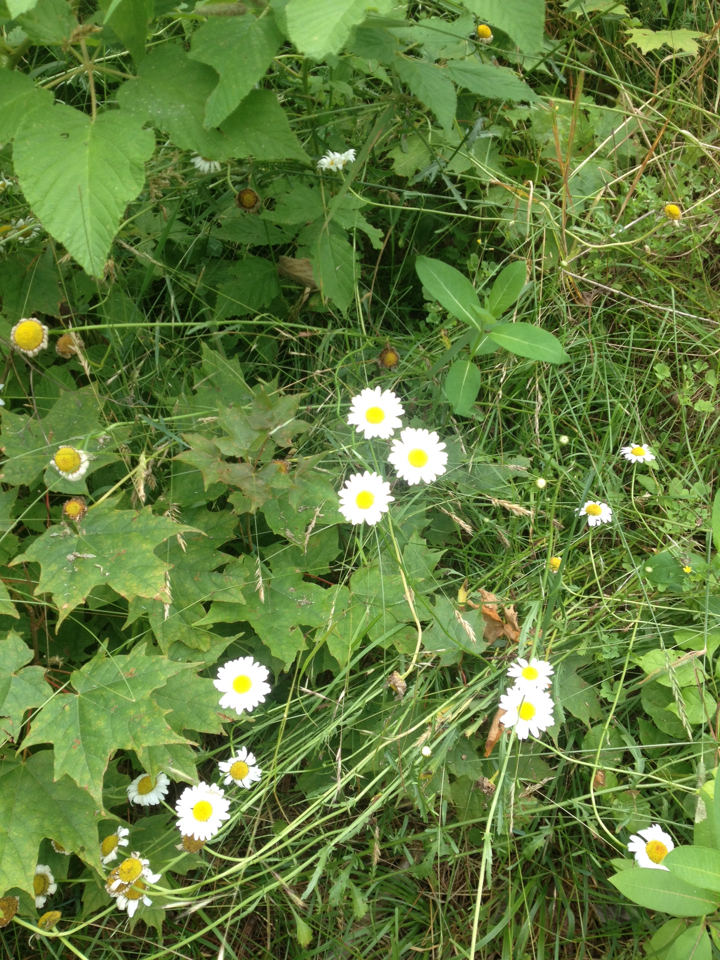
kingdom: Plantae
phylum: Tracheophyta
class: Magnoliopsida
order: Asterales
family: Asteraceae
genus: Leucanthemum
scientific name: Leucanthemum vulgare
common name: Oxeye daisy
